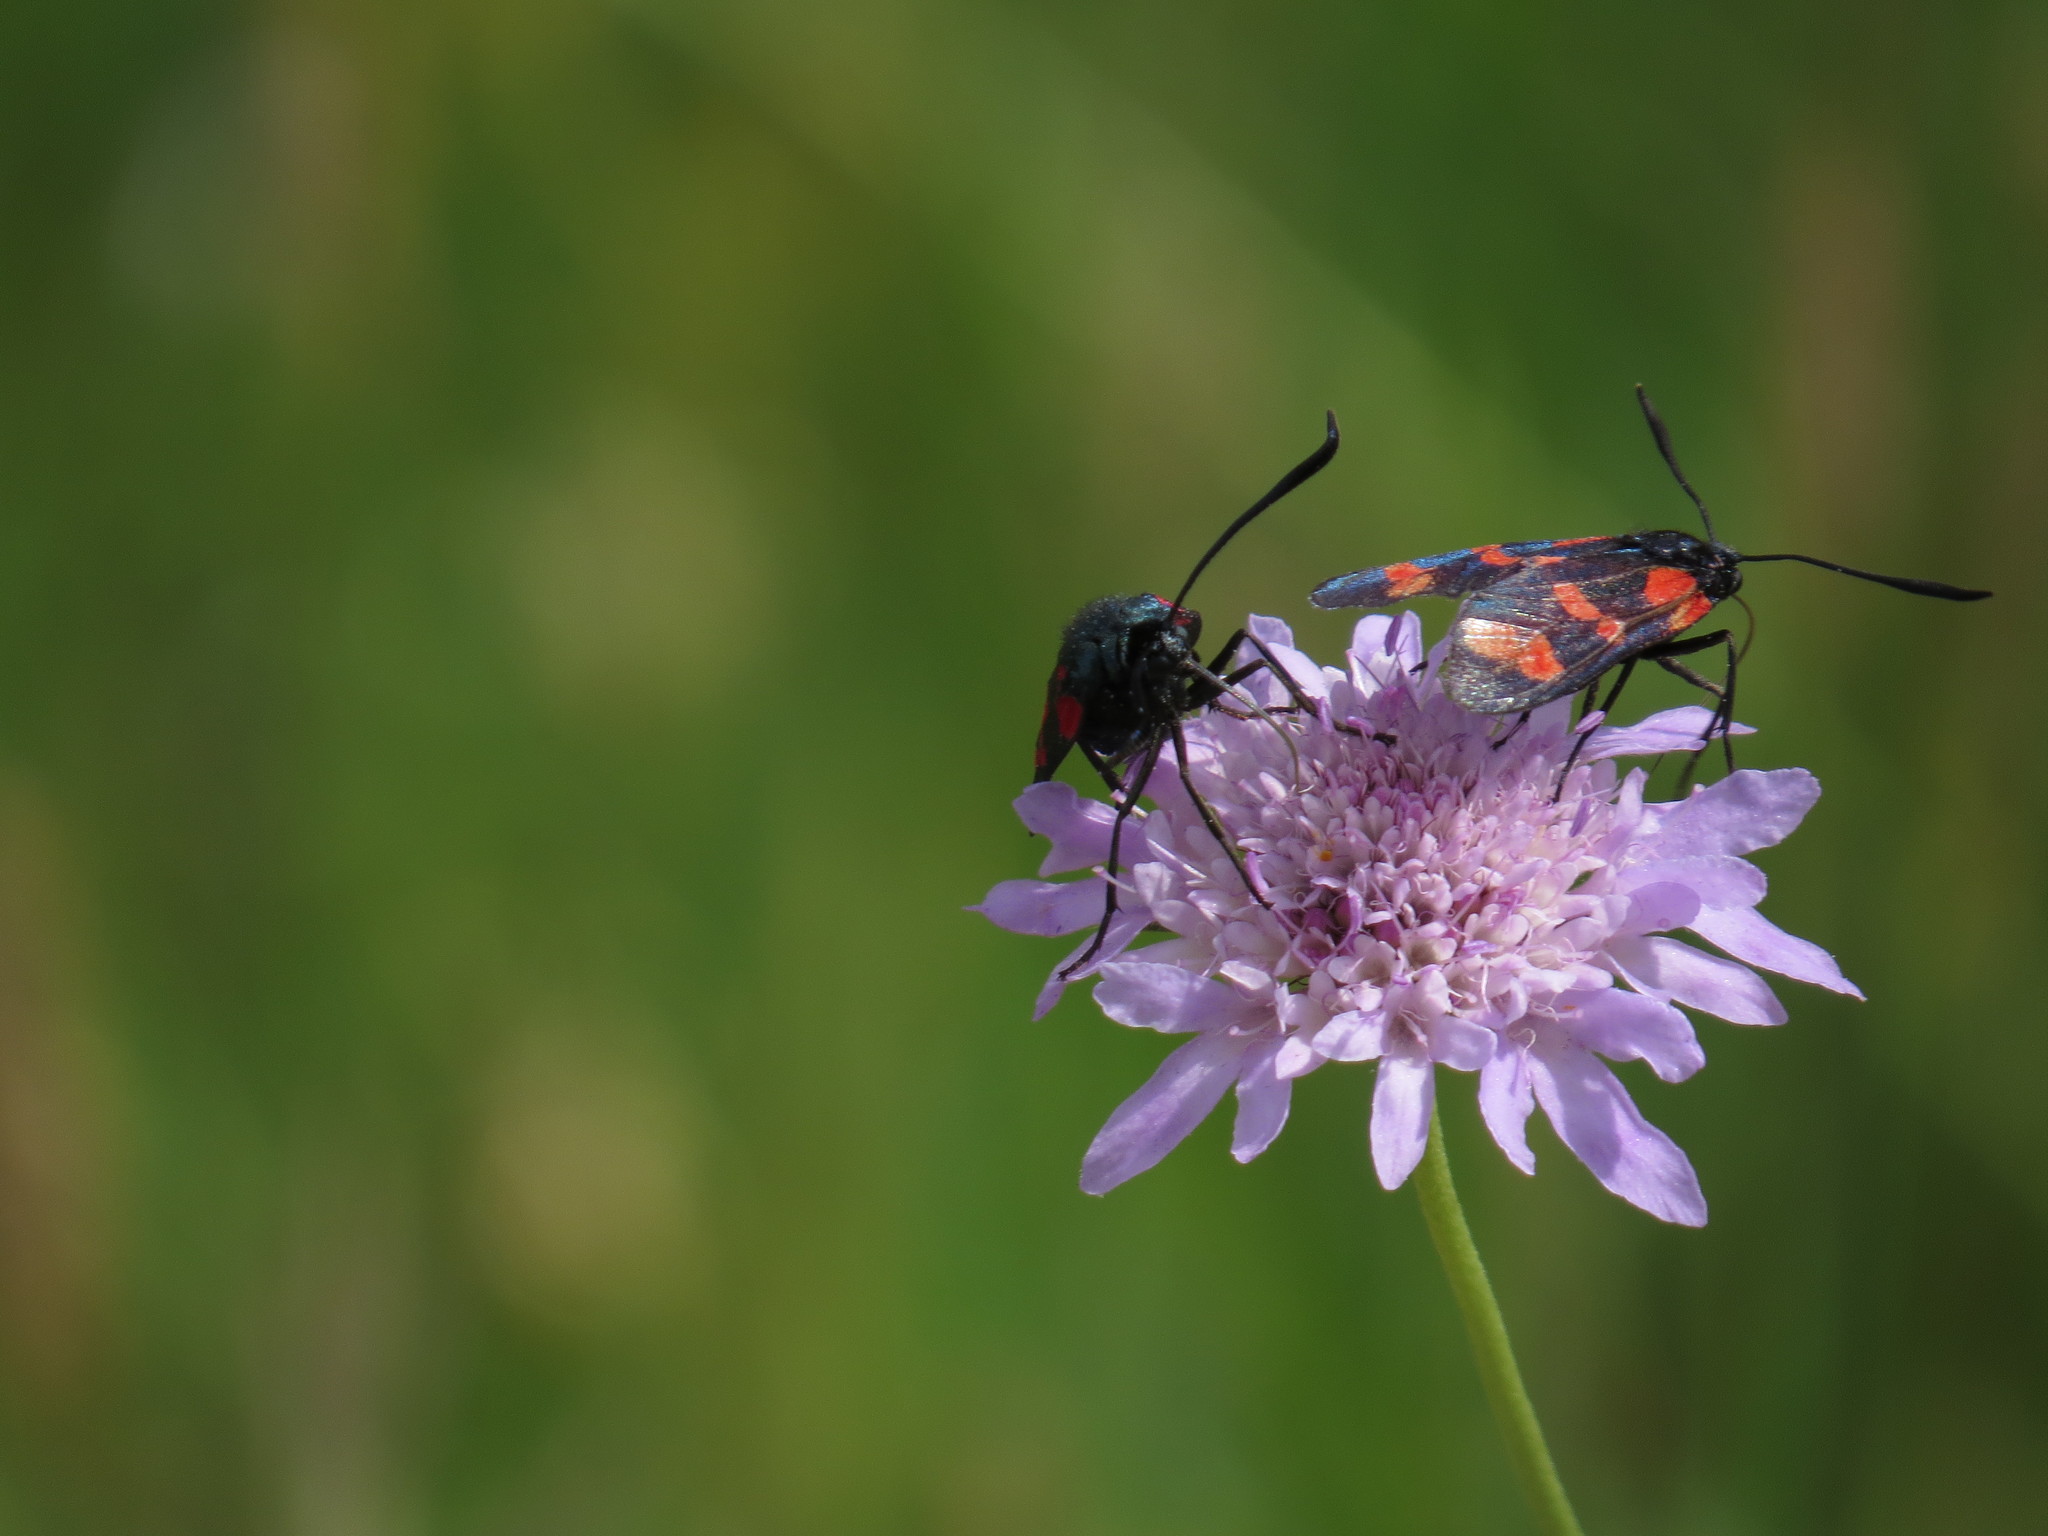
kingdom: Animalia
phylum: Arthropoda
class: Insecta
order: Lepidoptera
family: Zygaenidae
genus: Zygaena
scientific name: Zygaena filipendulae
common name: Six-spot burnet
